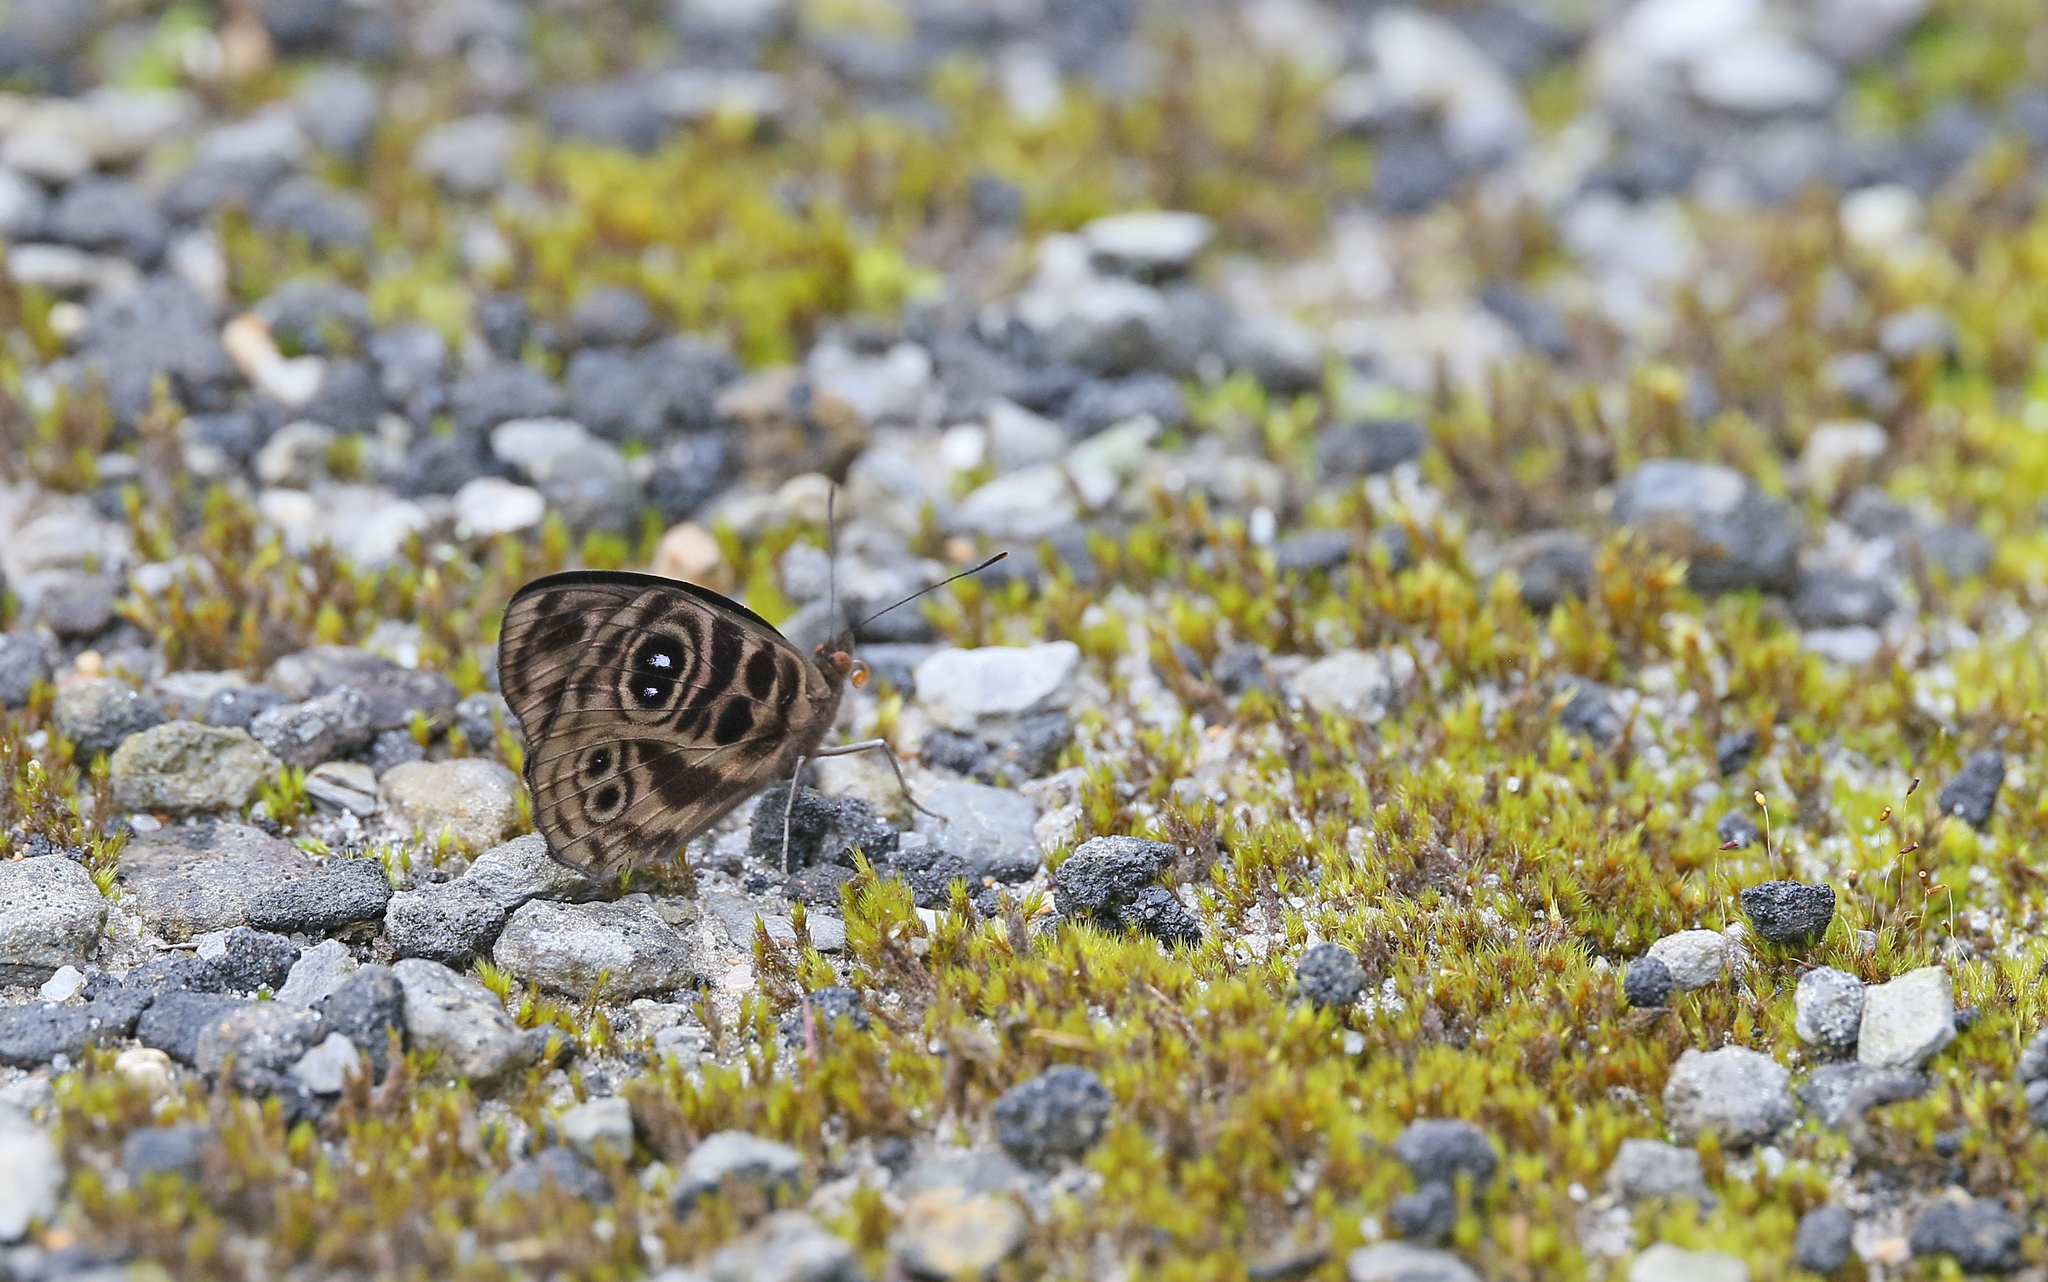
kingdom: Animalia
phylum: Arthropoda
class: Insecta
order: Lepidoptera
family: Nymphalidae
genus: Eunica
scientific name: Eunica norica
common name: Norica purplewing
